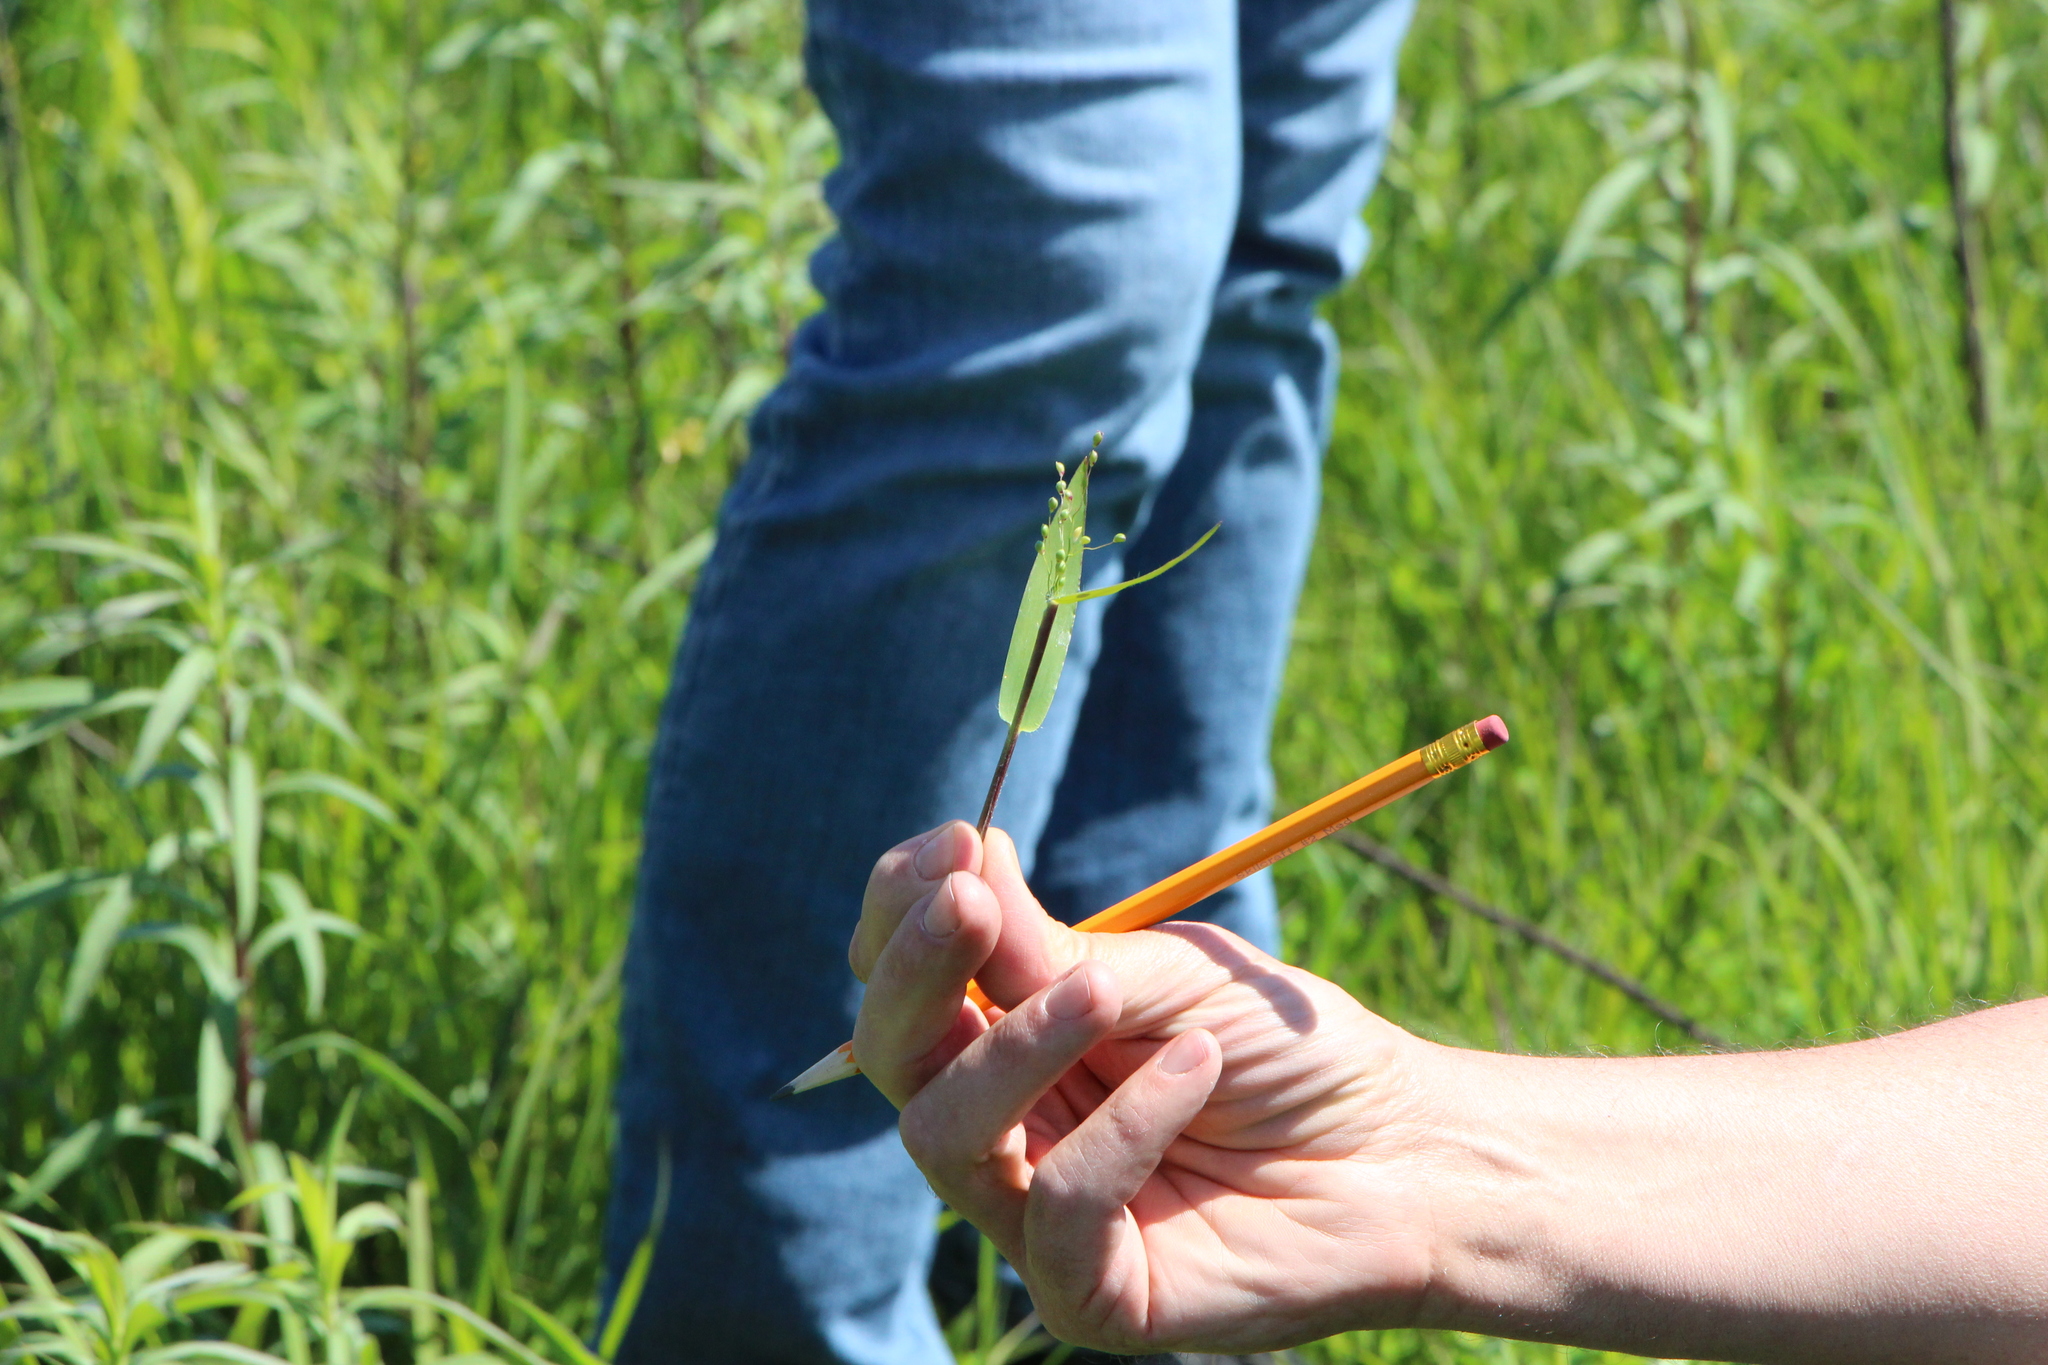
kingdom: Plantae
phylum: Tracheophyta
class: Liliopsida
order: Poales
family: Poaceae
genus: Dichanthelium
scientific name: Dichanthelium scribnerianum
